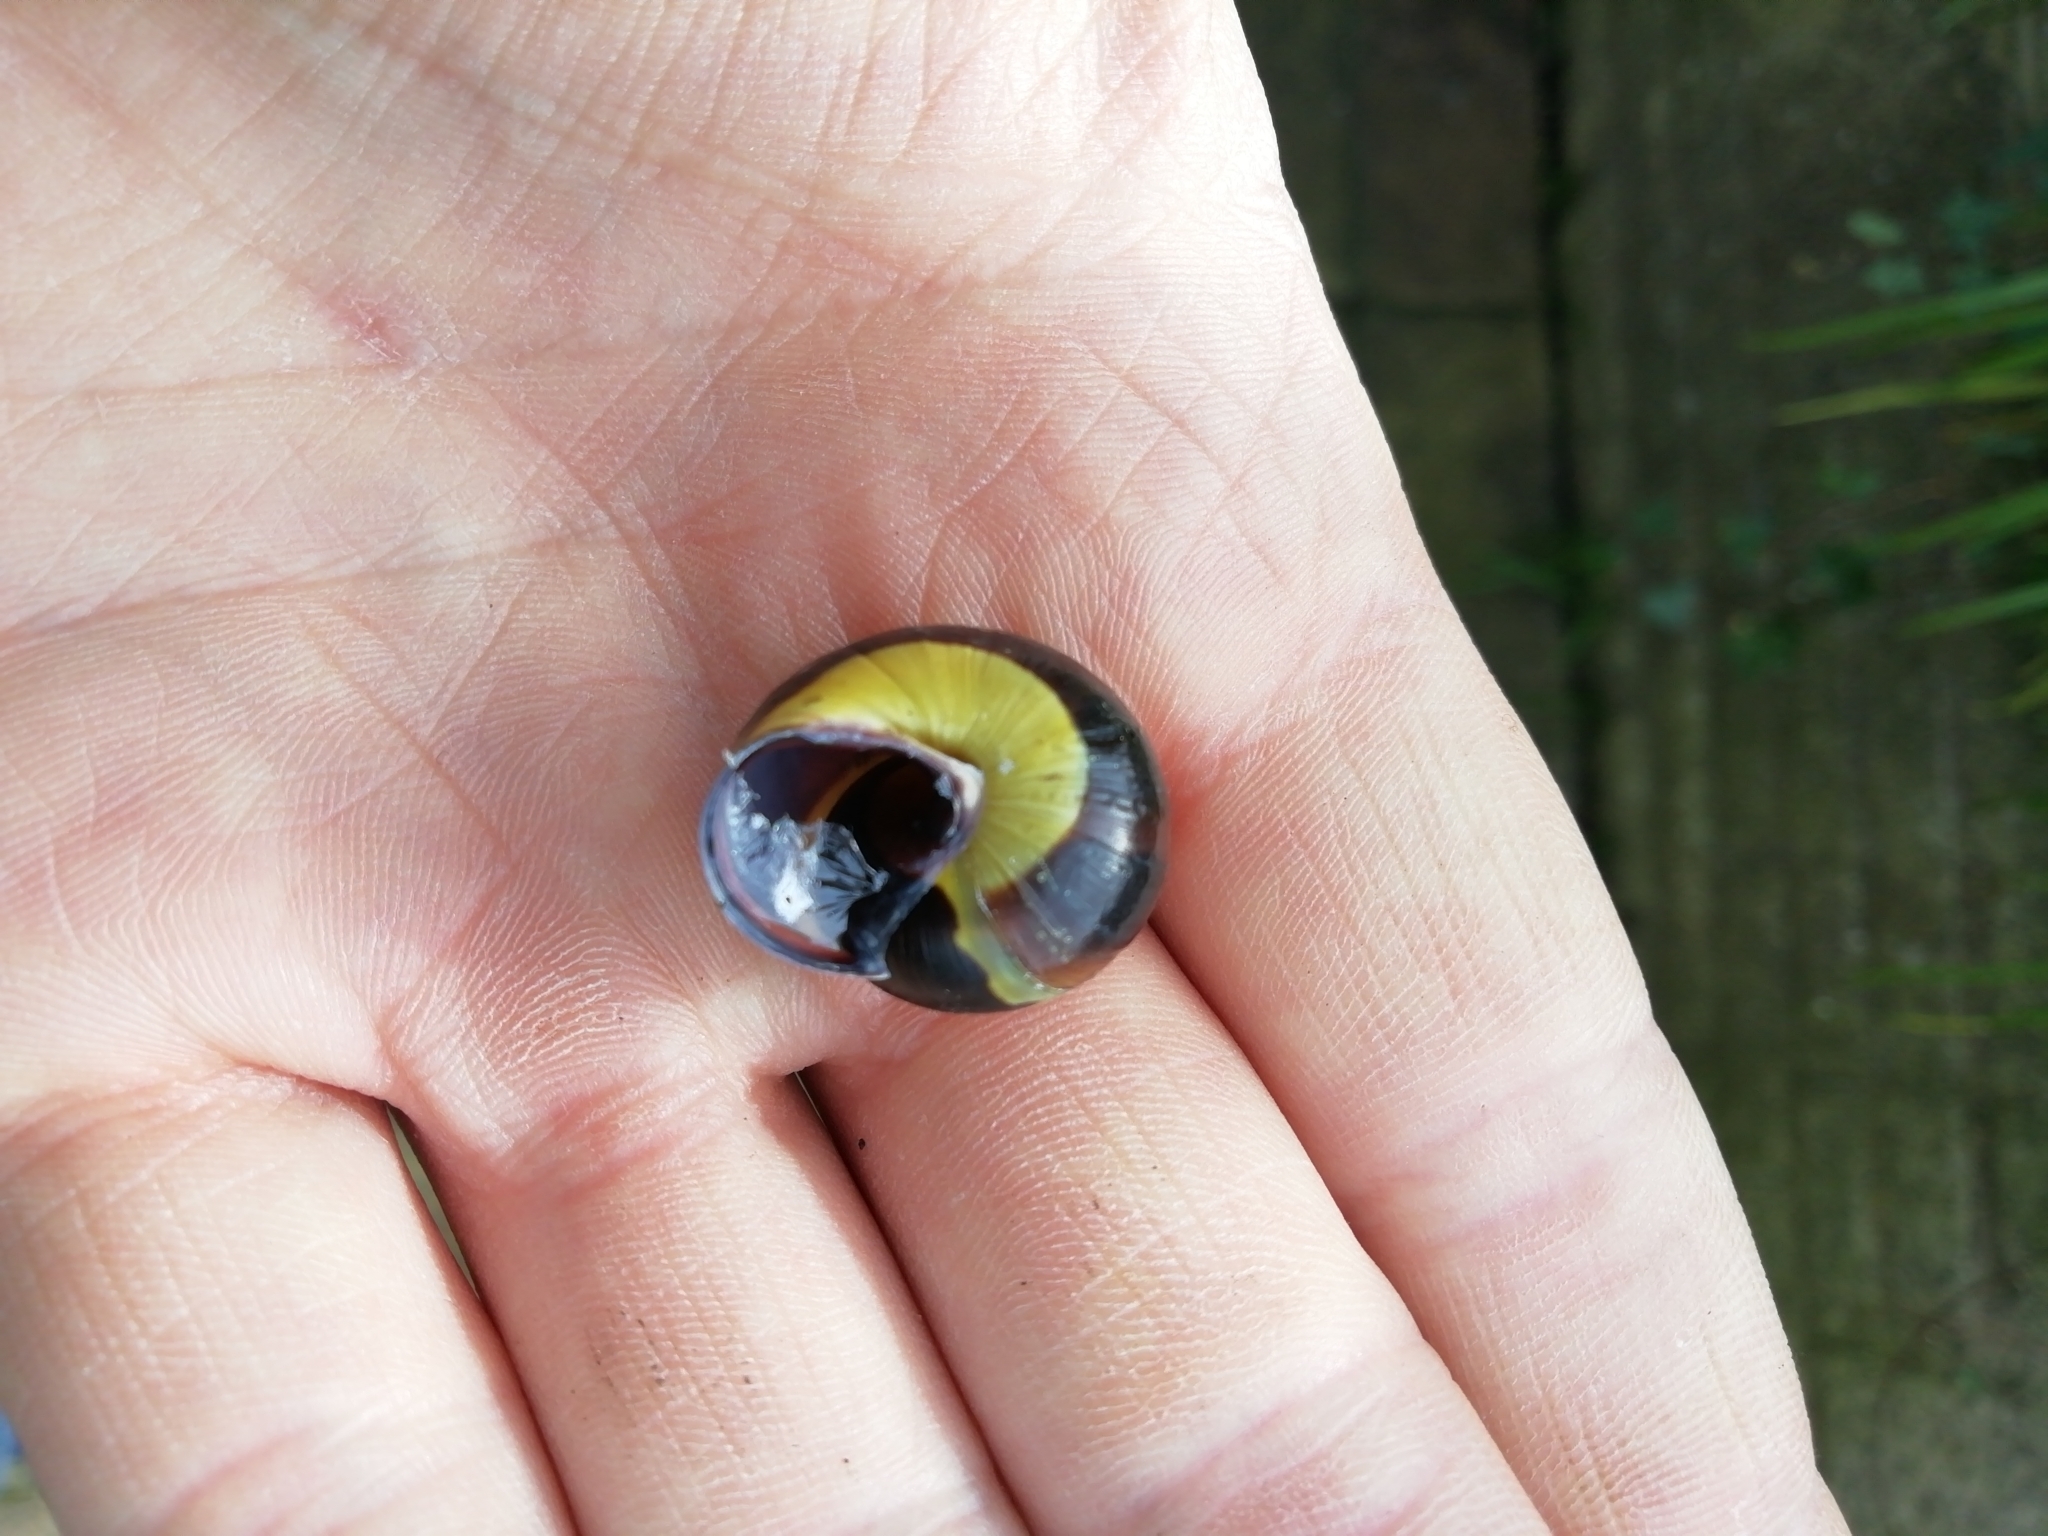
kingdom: Animalia
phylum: Mollusca
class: Gastropoda
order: Stylommatophora
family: Helicidae
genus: Cepaea
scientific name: Cepaea nemoralis
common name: Grovesnail
